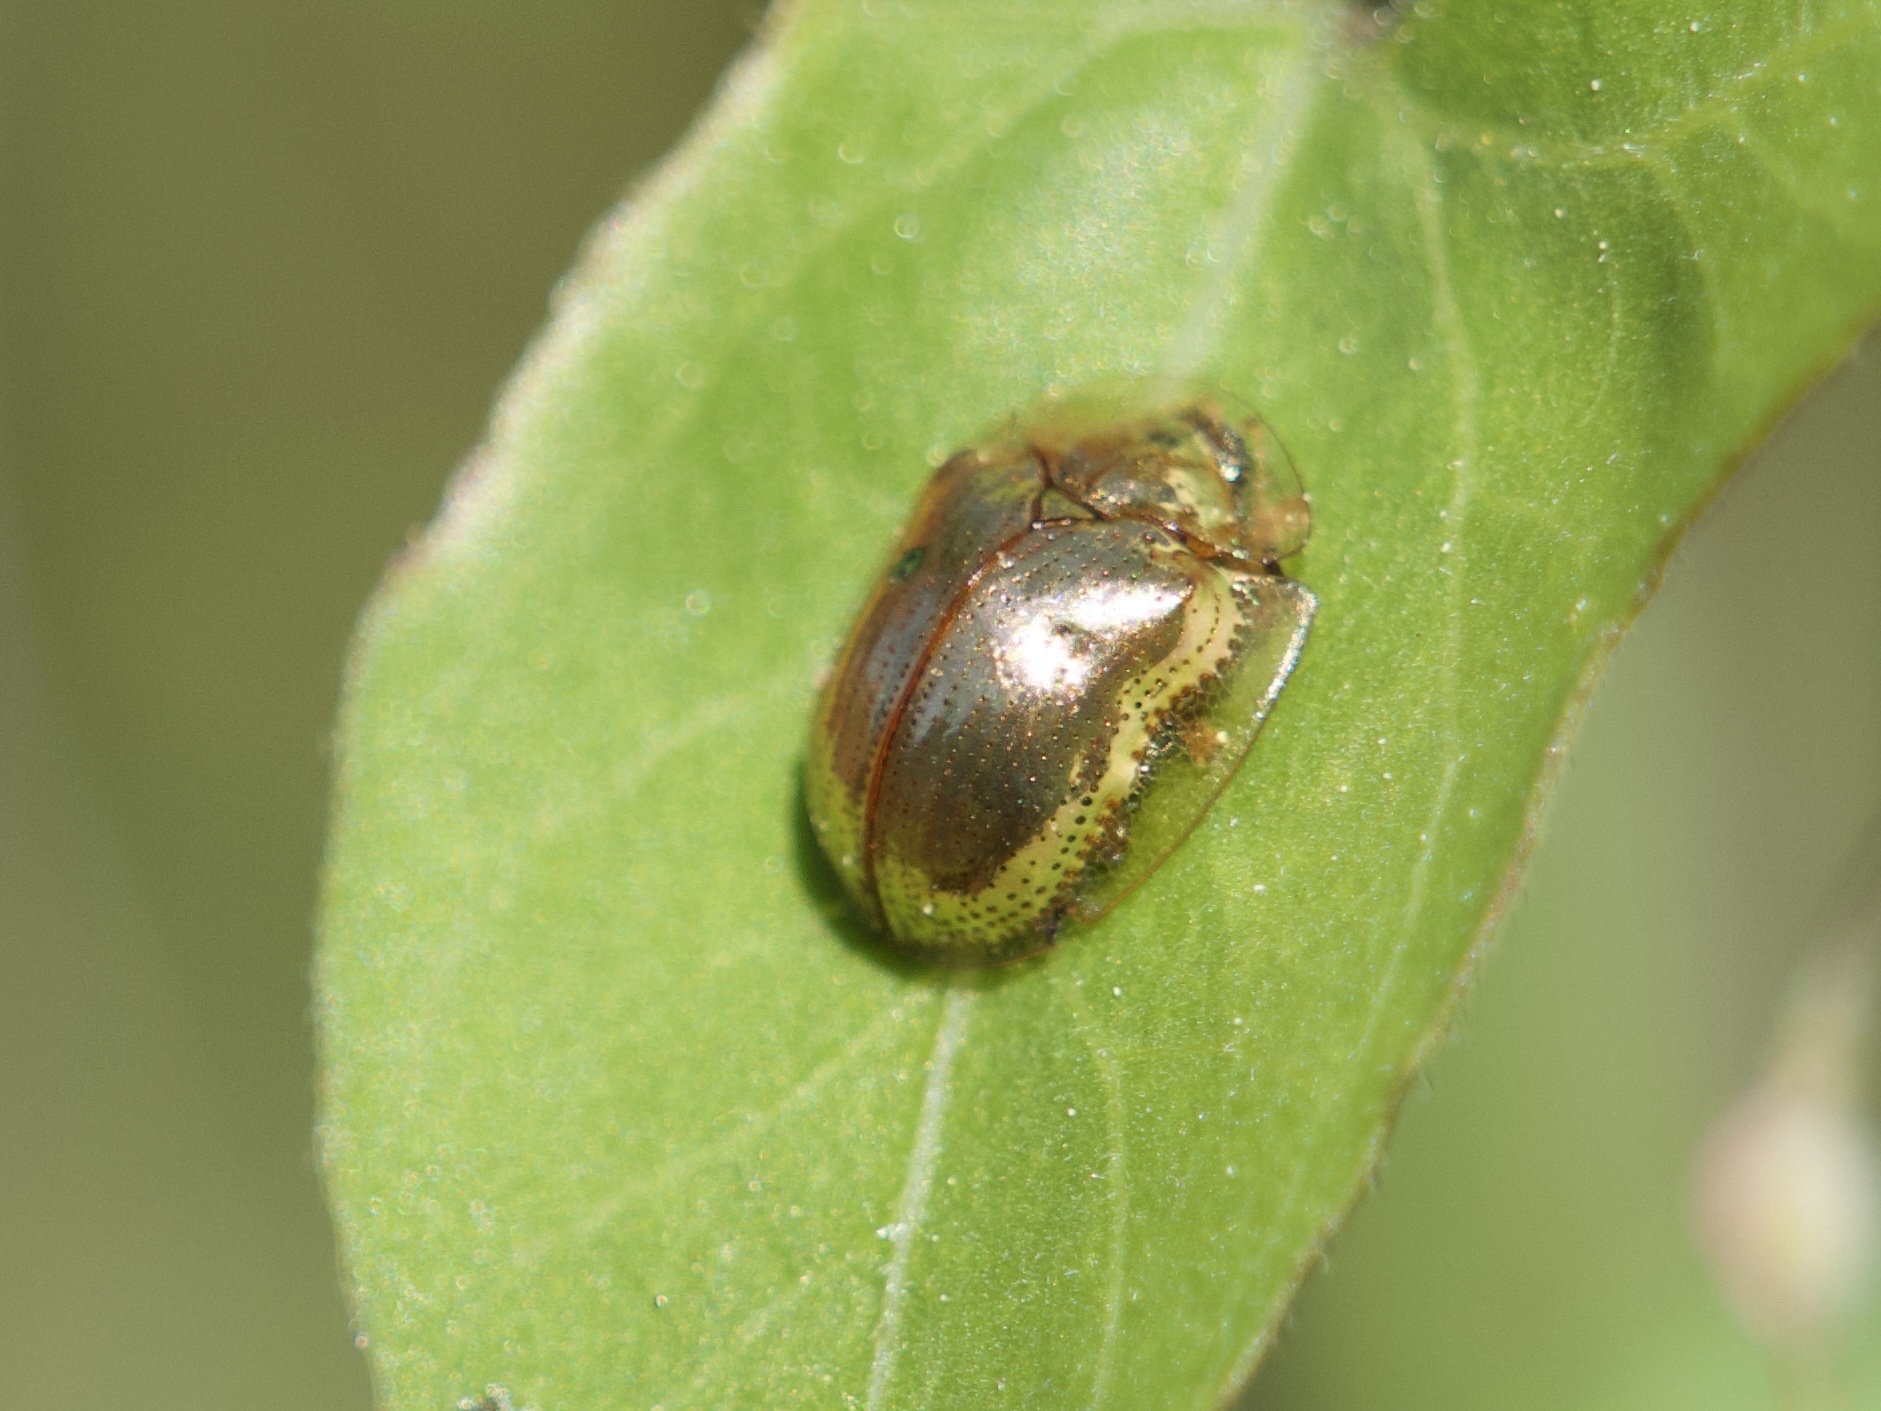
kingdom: Animalia
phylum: Arthropoda
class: Insecta
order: Coleoptera
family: Chrysomelidae
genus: Charidotella
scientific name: Charidotella sexpunctata
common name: Golden tortoise beetle
